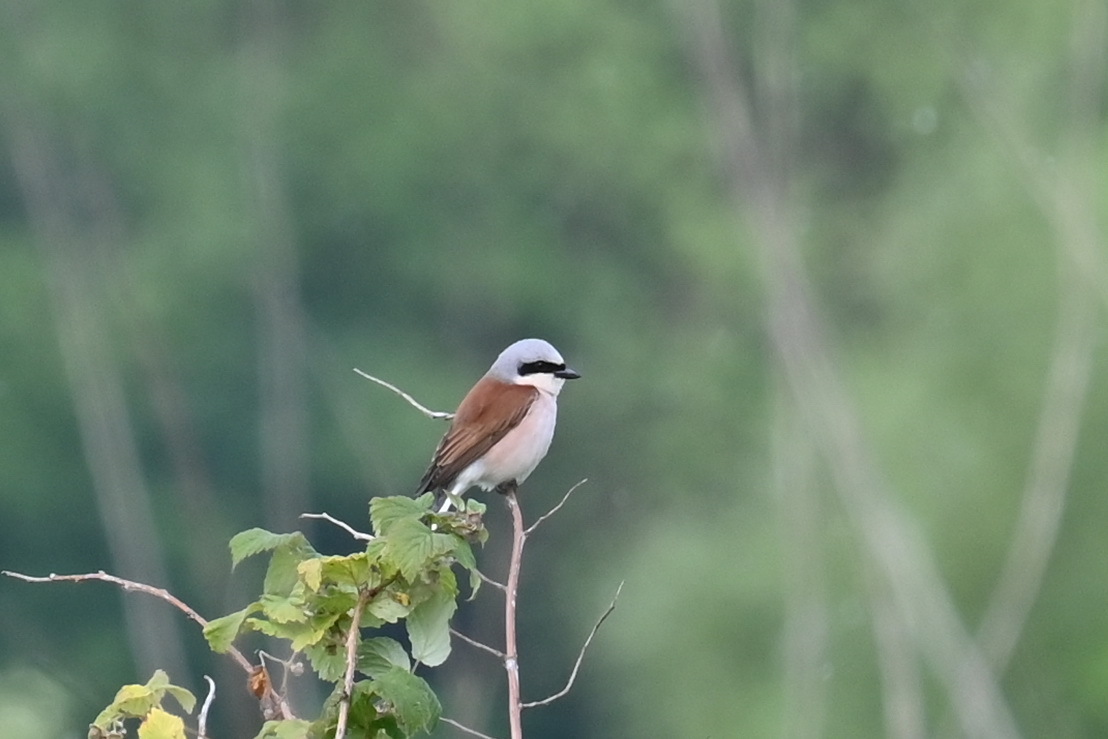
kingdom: Animalia
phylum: Chordata
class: Aves
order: Passeriformes
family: Laniidae
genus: Lanius
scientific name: Lanius collurio
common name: Red-backed shrike
